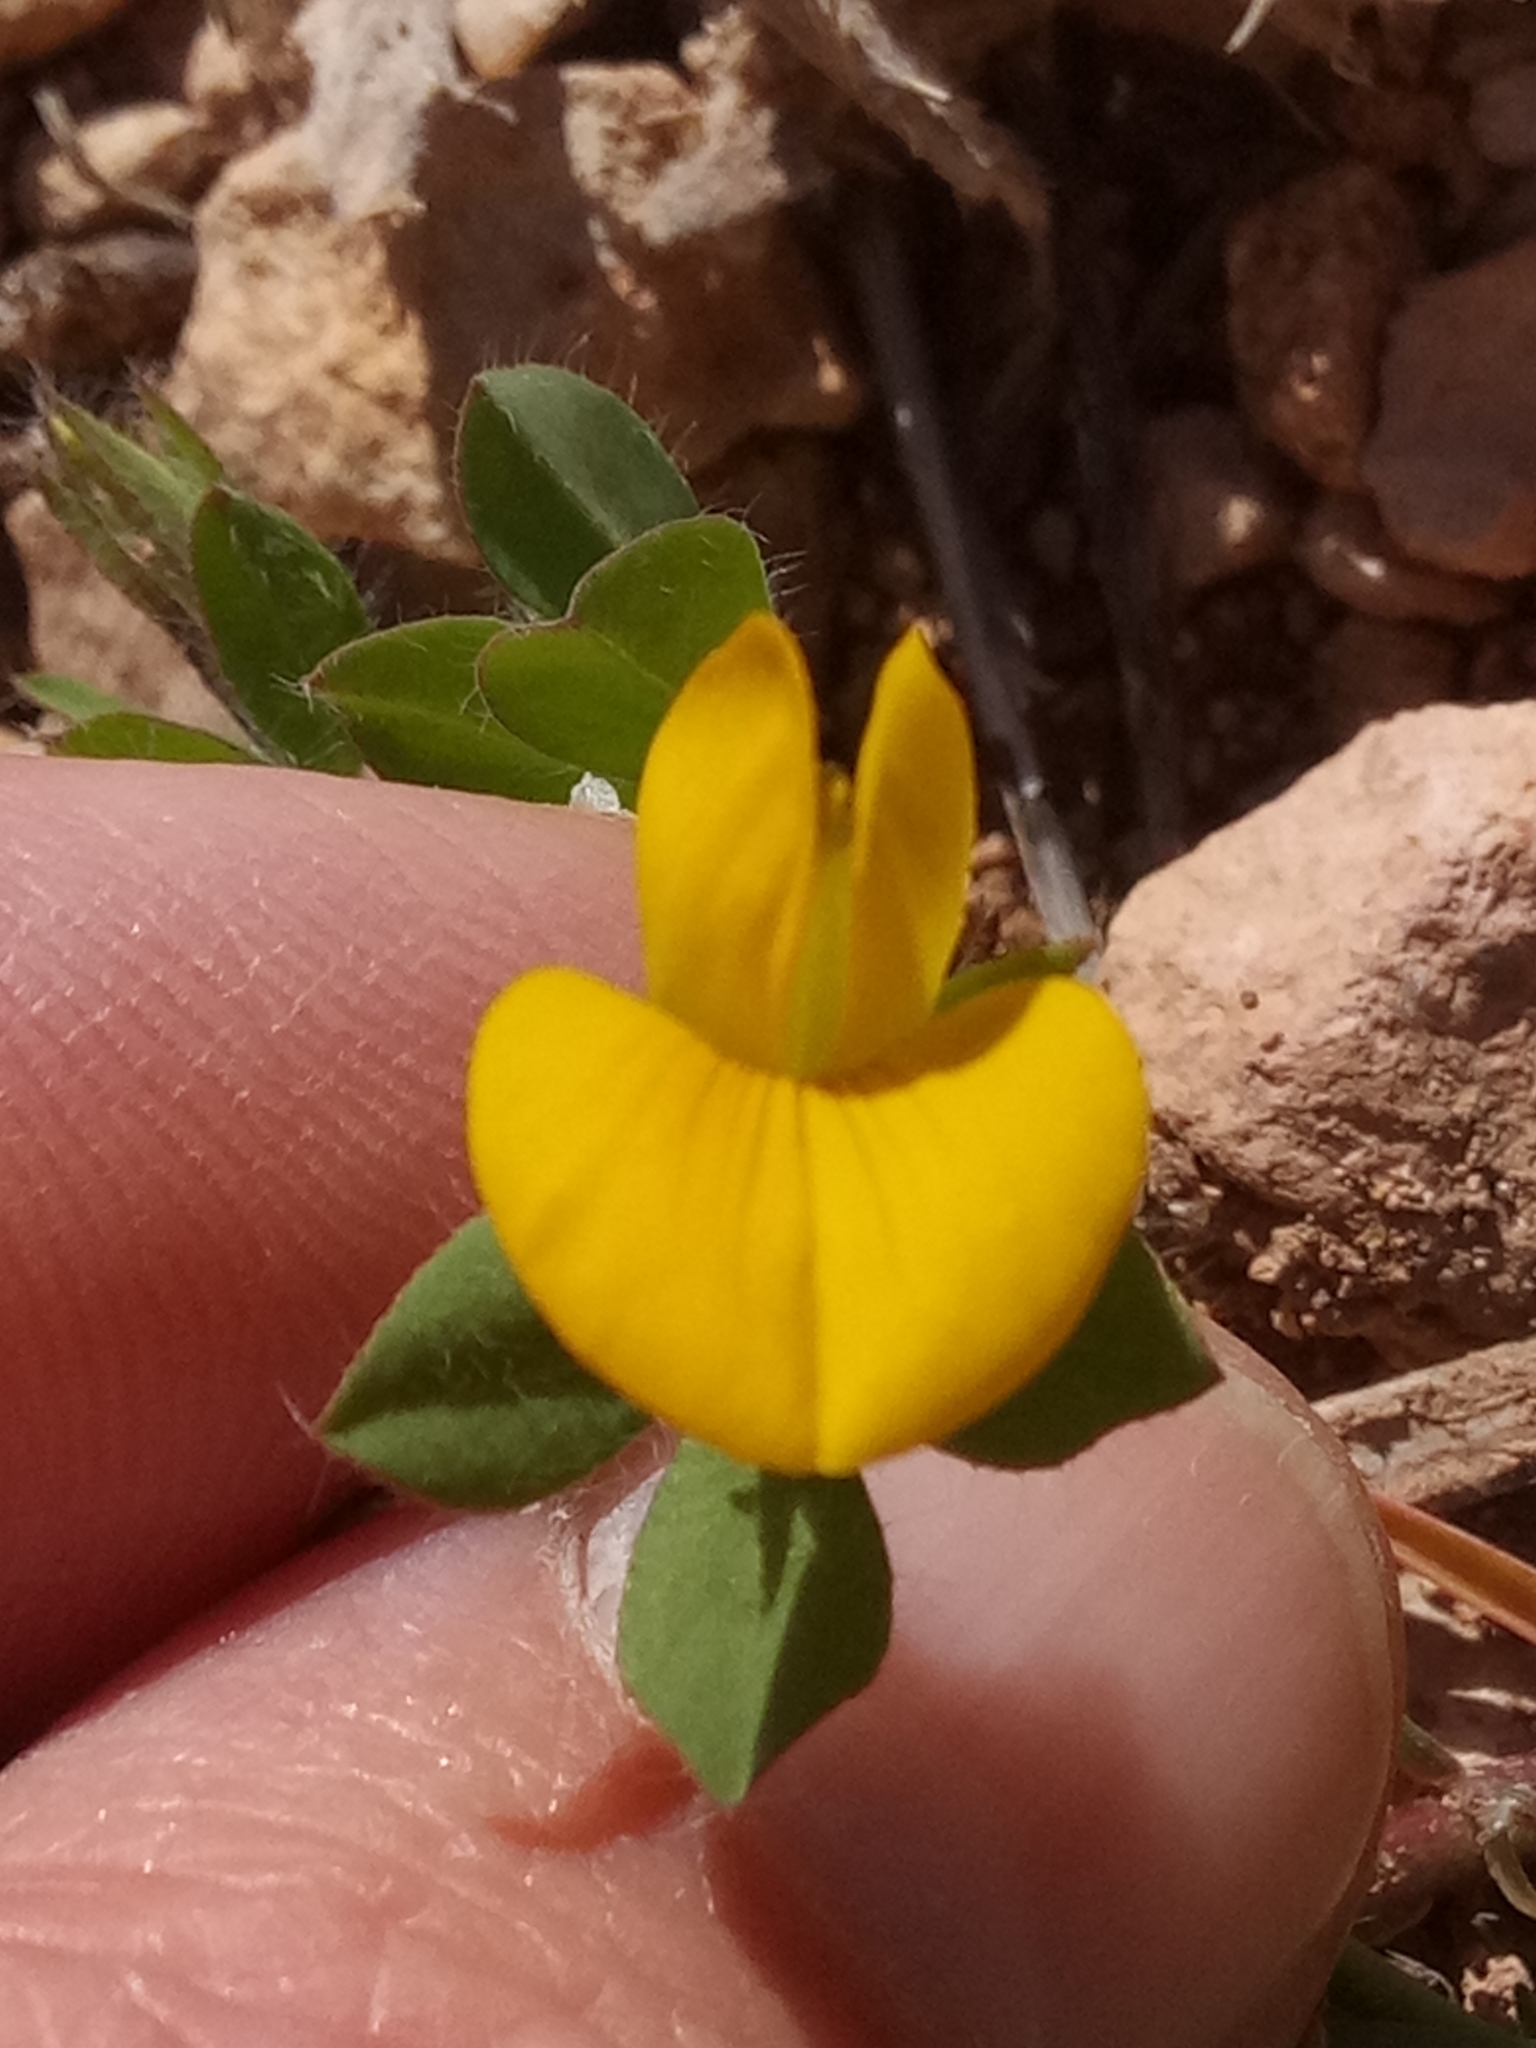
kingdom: Plantae
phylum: Tracheophyta
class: Magnoliopsida
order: Fabales
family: Fabaceae
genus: Lotus
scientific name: Lotus edulis
